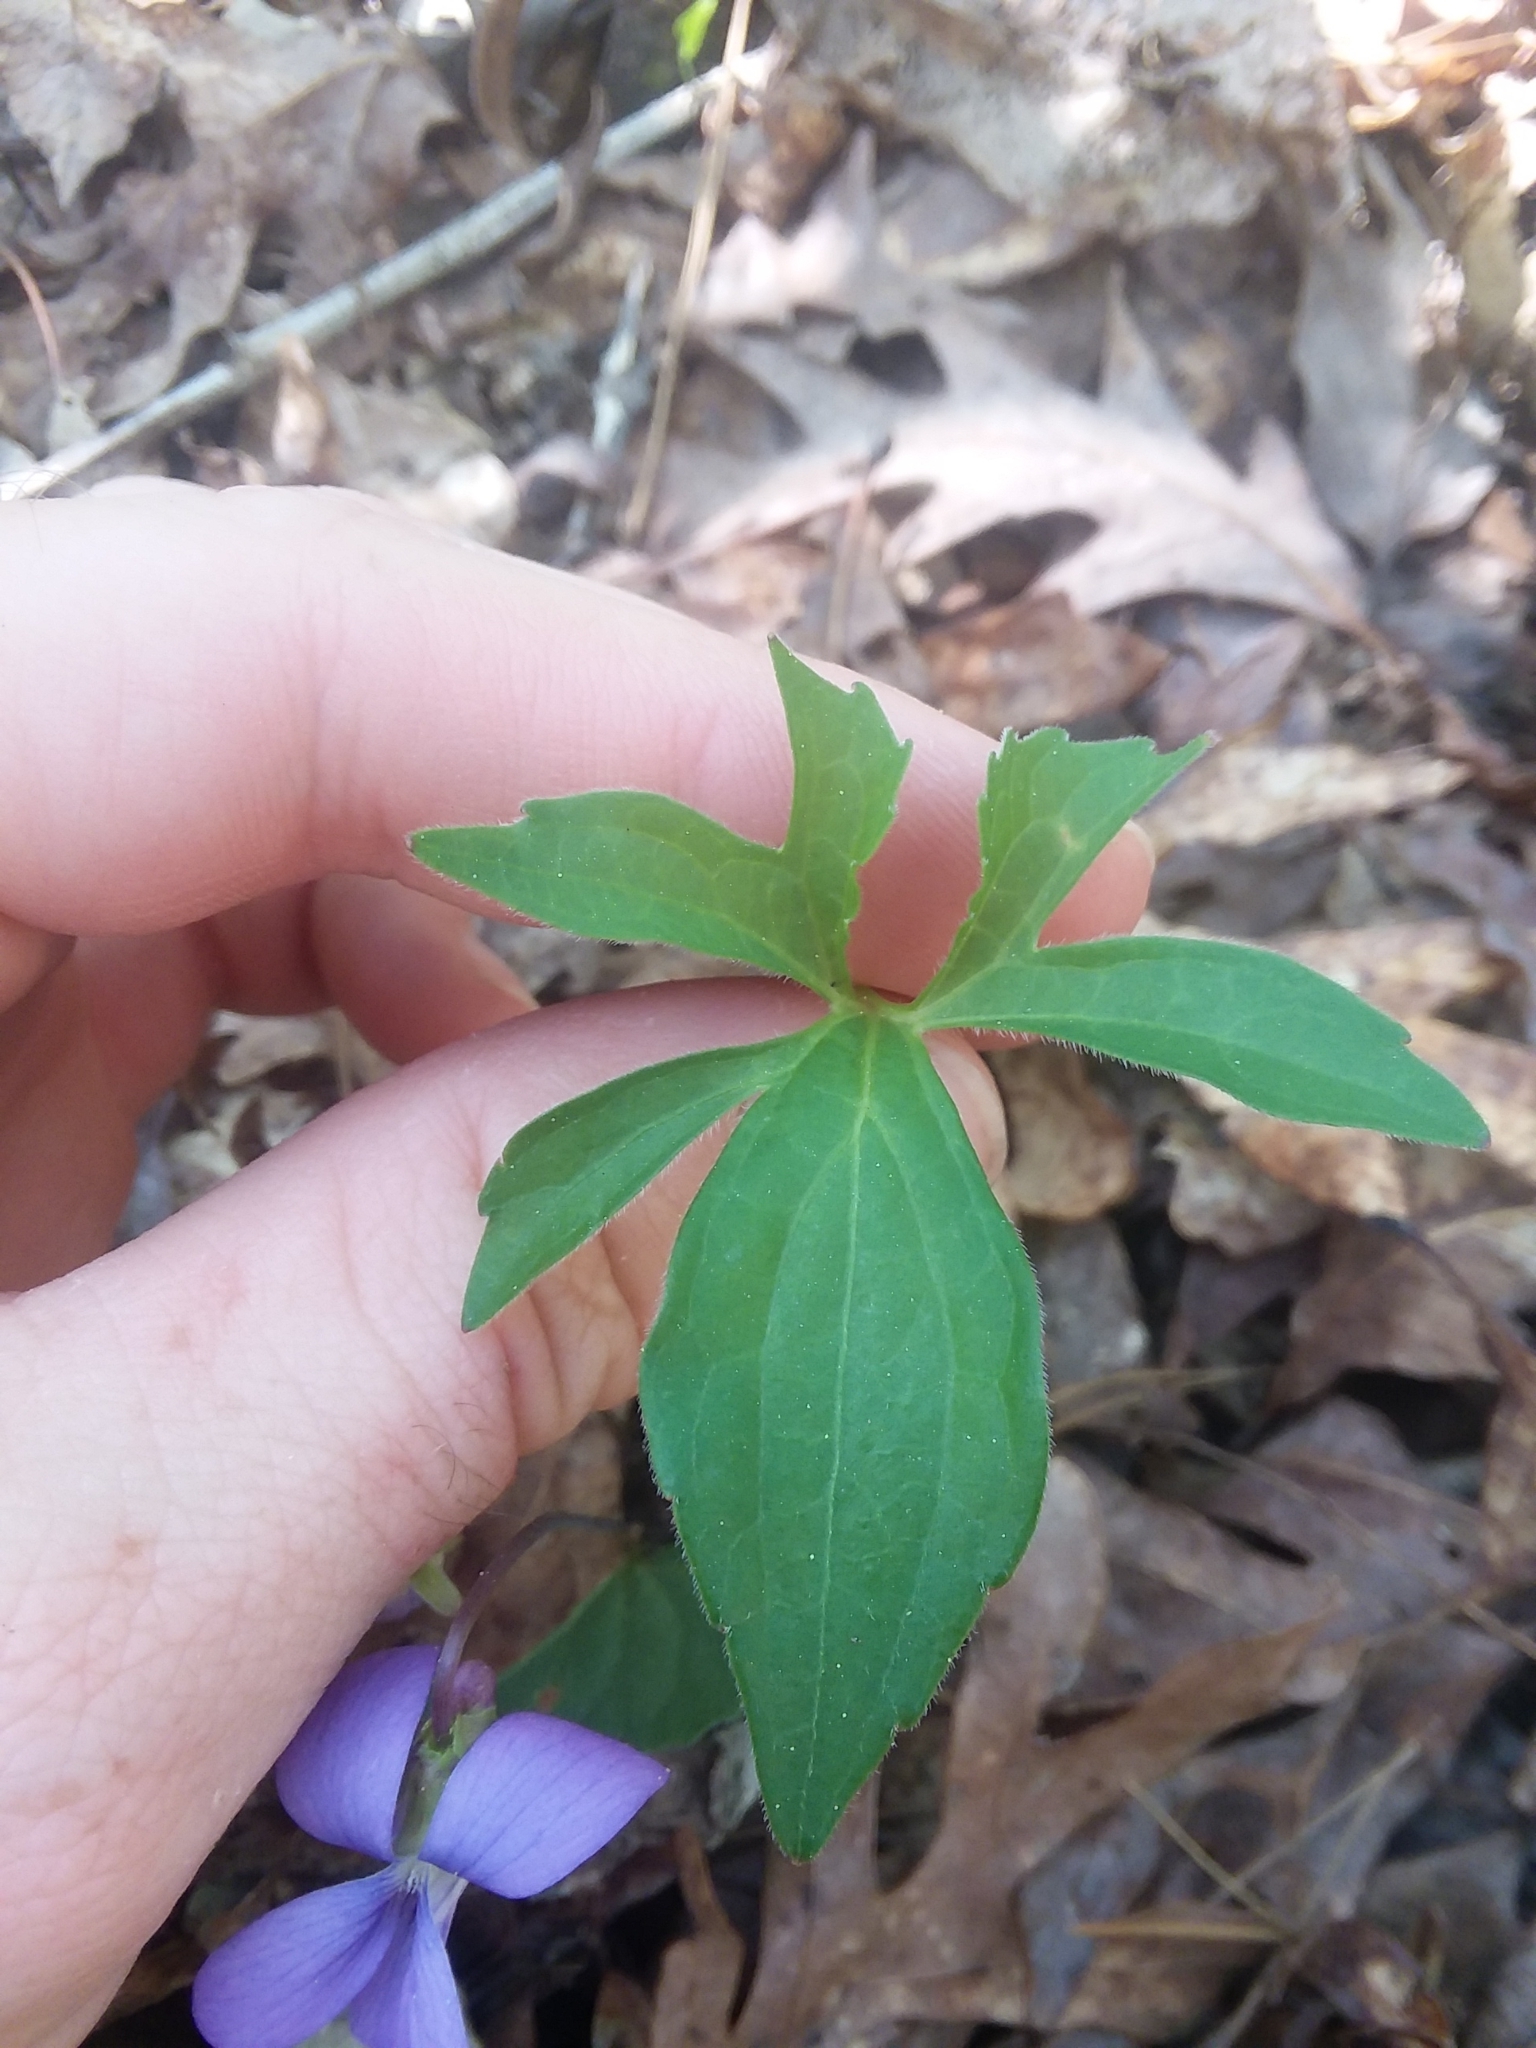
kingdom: Plantae
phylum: Tracheophyta
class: Magnoliopsida
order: Malpighiales
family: Violaceae
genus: Viola
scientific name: Viola palmata
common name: Early blue violet
